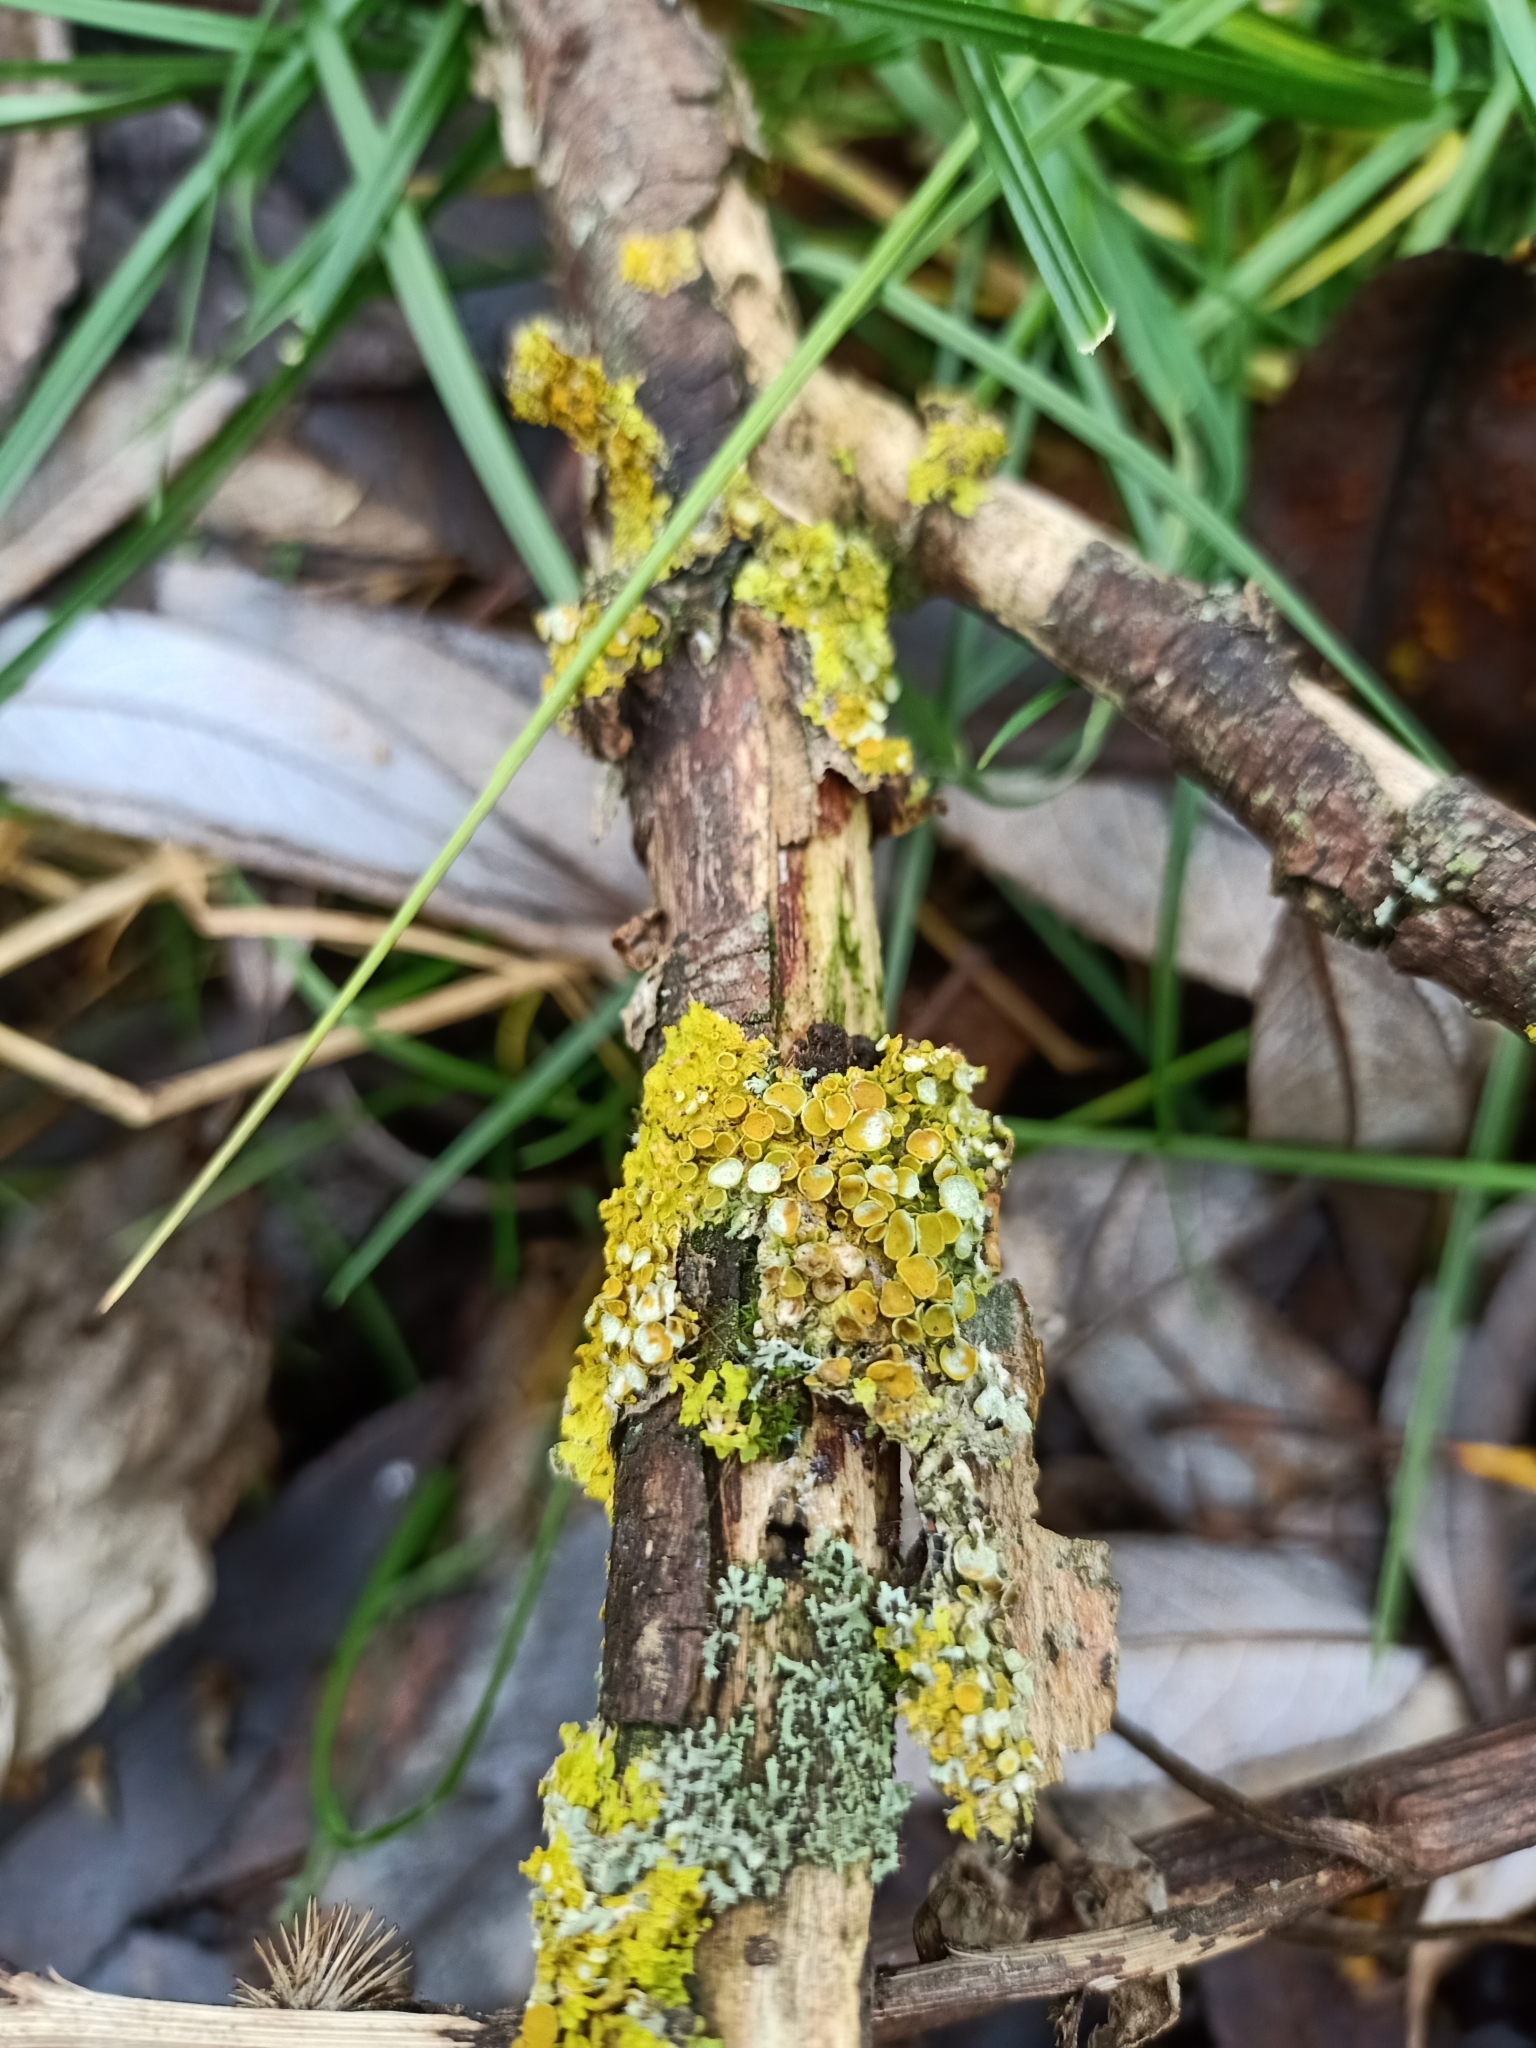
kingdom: Fungi
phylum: Ascomycota
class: Lecanoromycetes
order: Teloschistales
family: Teloschistaceae
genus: Xanthoria
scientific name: Xanthoria parietina
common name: Common orange lichen
